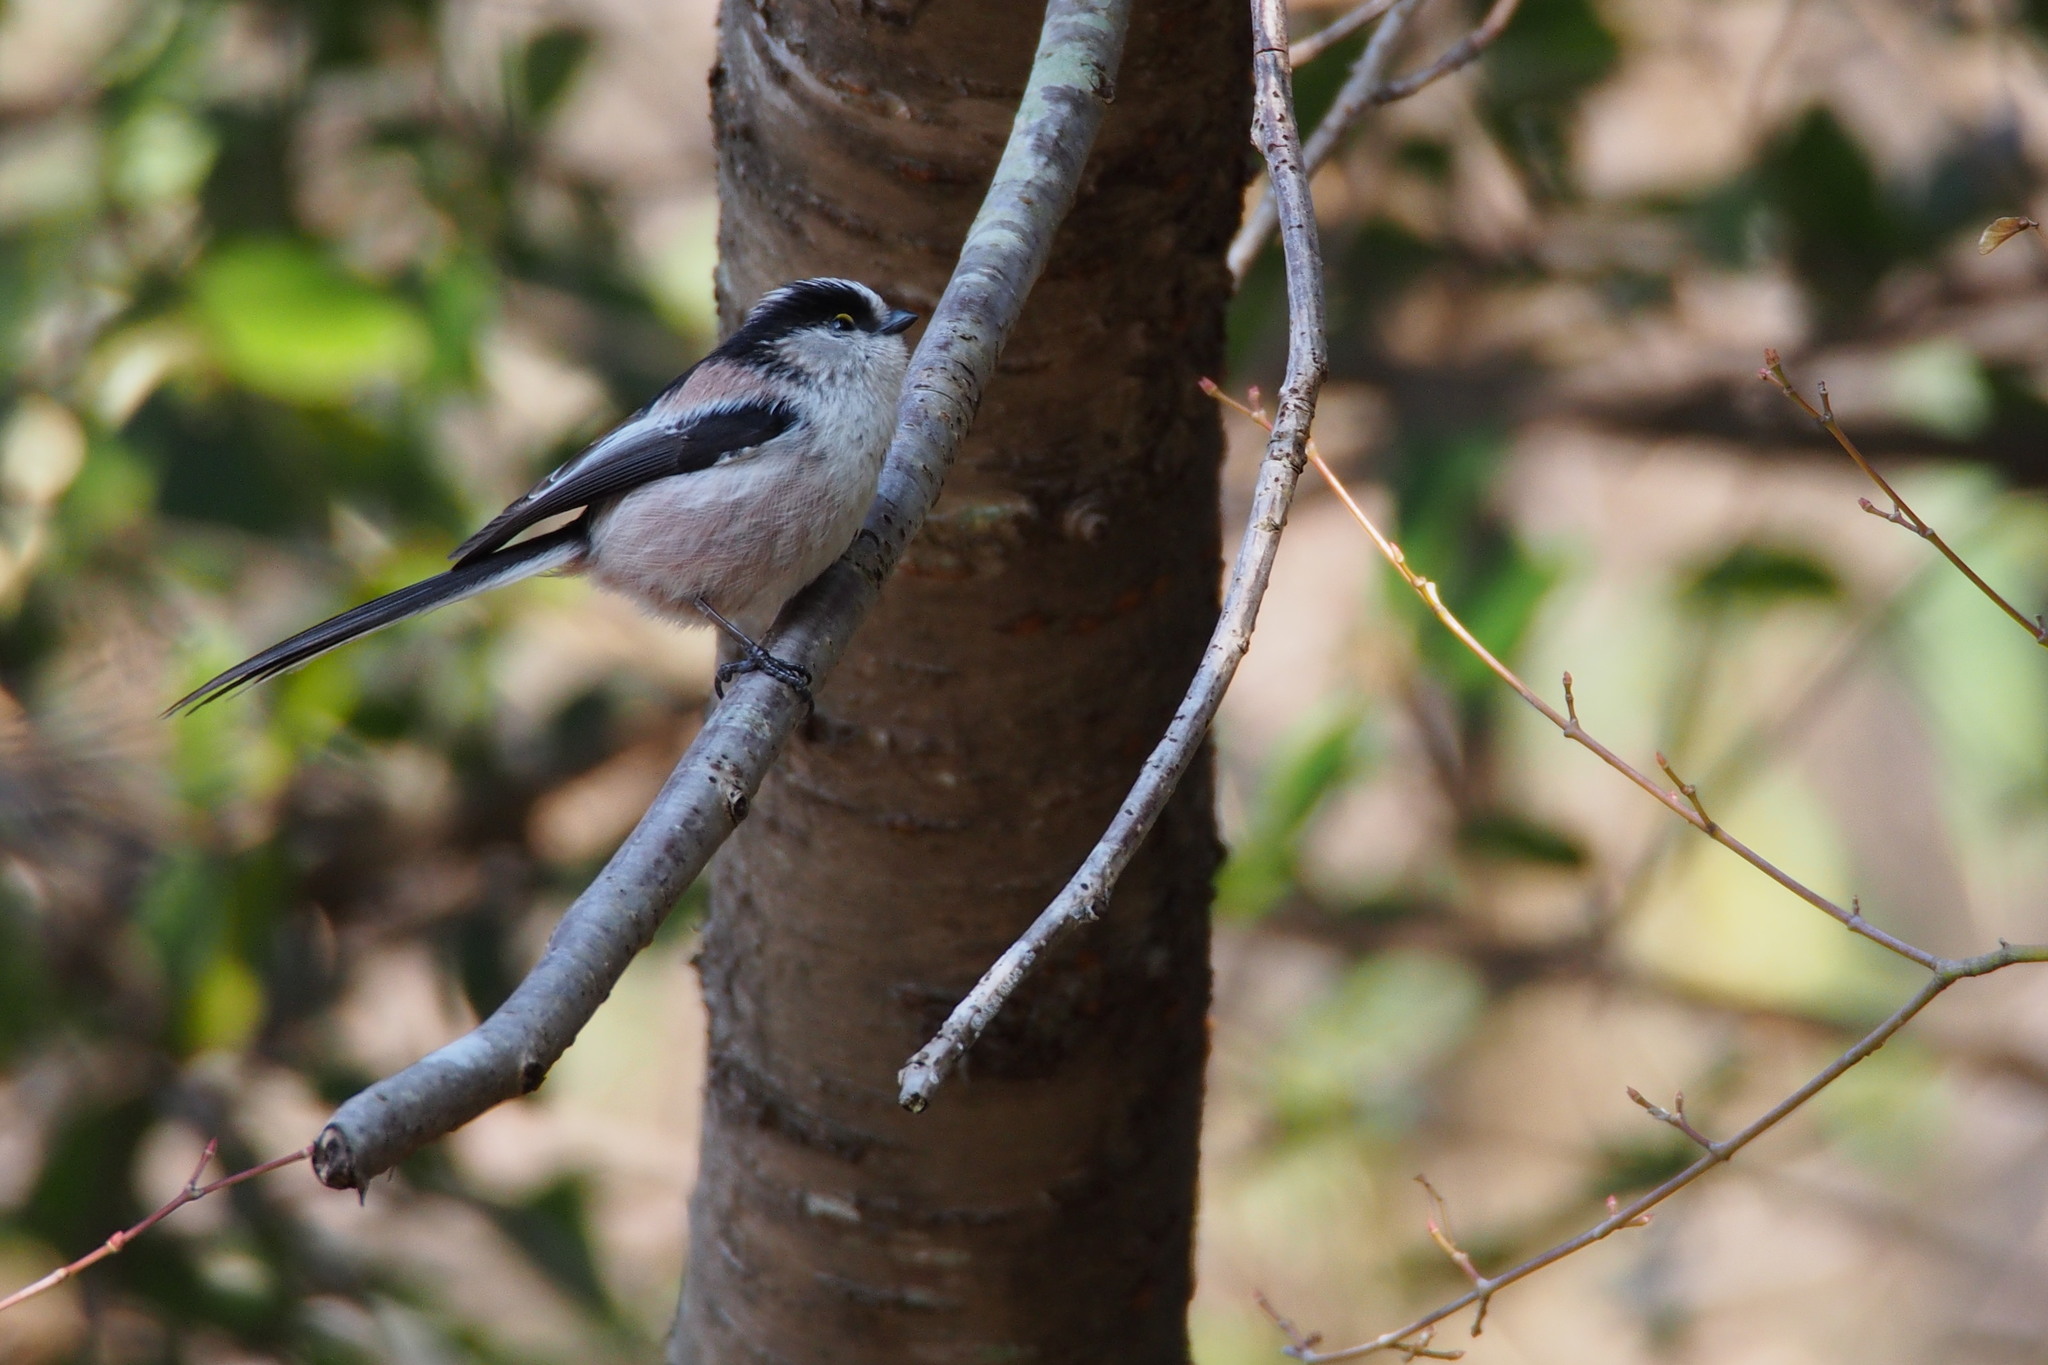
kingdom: Animalia
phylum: Chordata
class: Aves
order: Passeriformes
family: Aegithalidae
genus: Aegithalos
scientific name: Aegithalos caudatus
